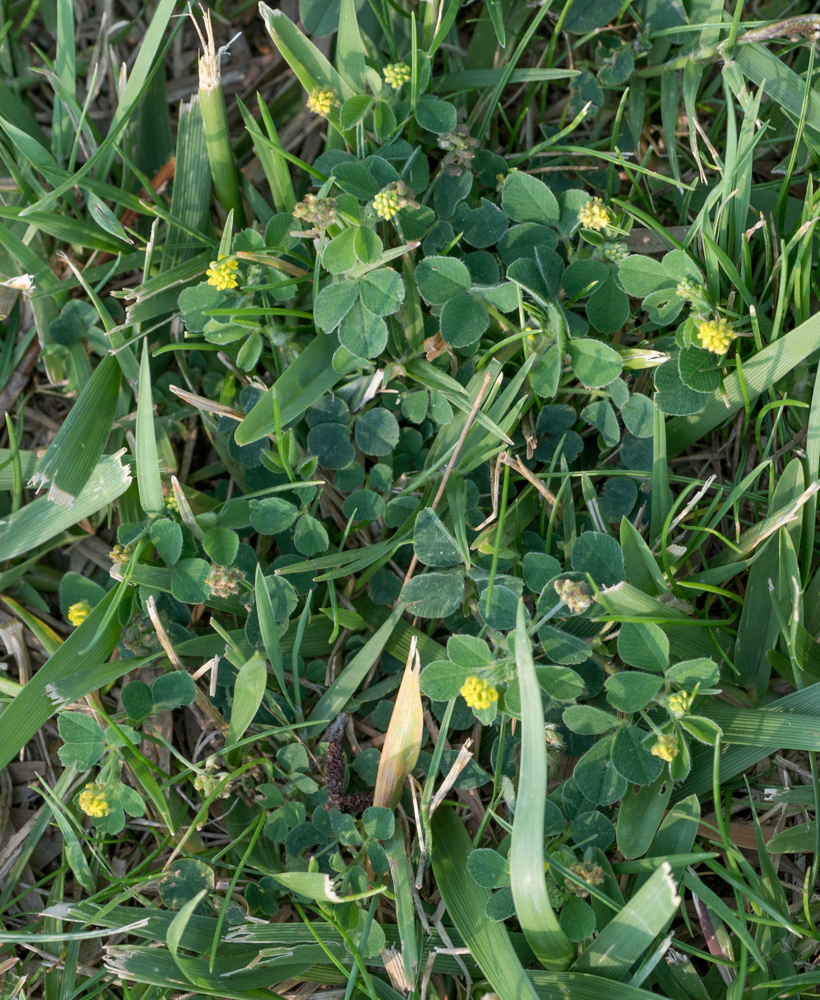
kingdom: Plantae
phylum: Tracheophyta
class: Magnoliopsida
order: Fabales
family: Fabaceae
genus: Medicago
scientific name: Medicago lupulina
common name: Black medick
